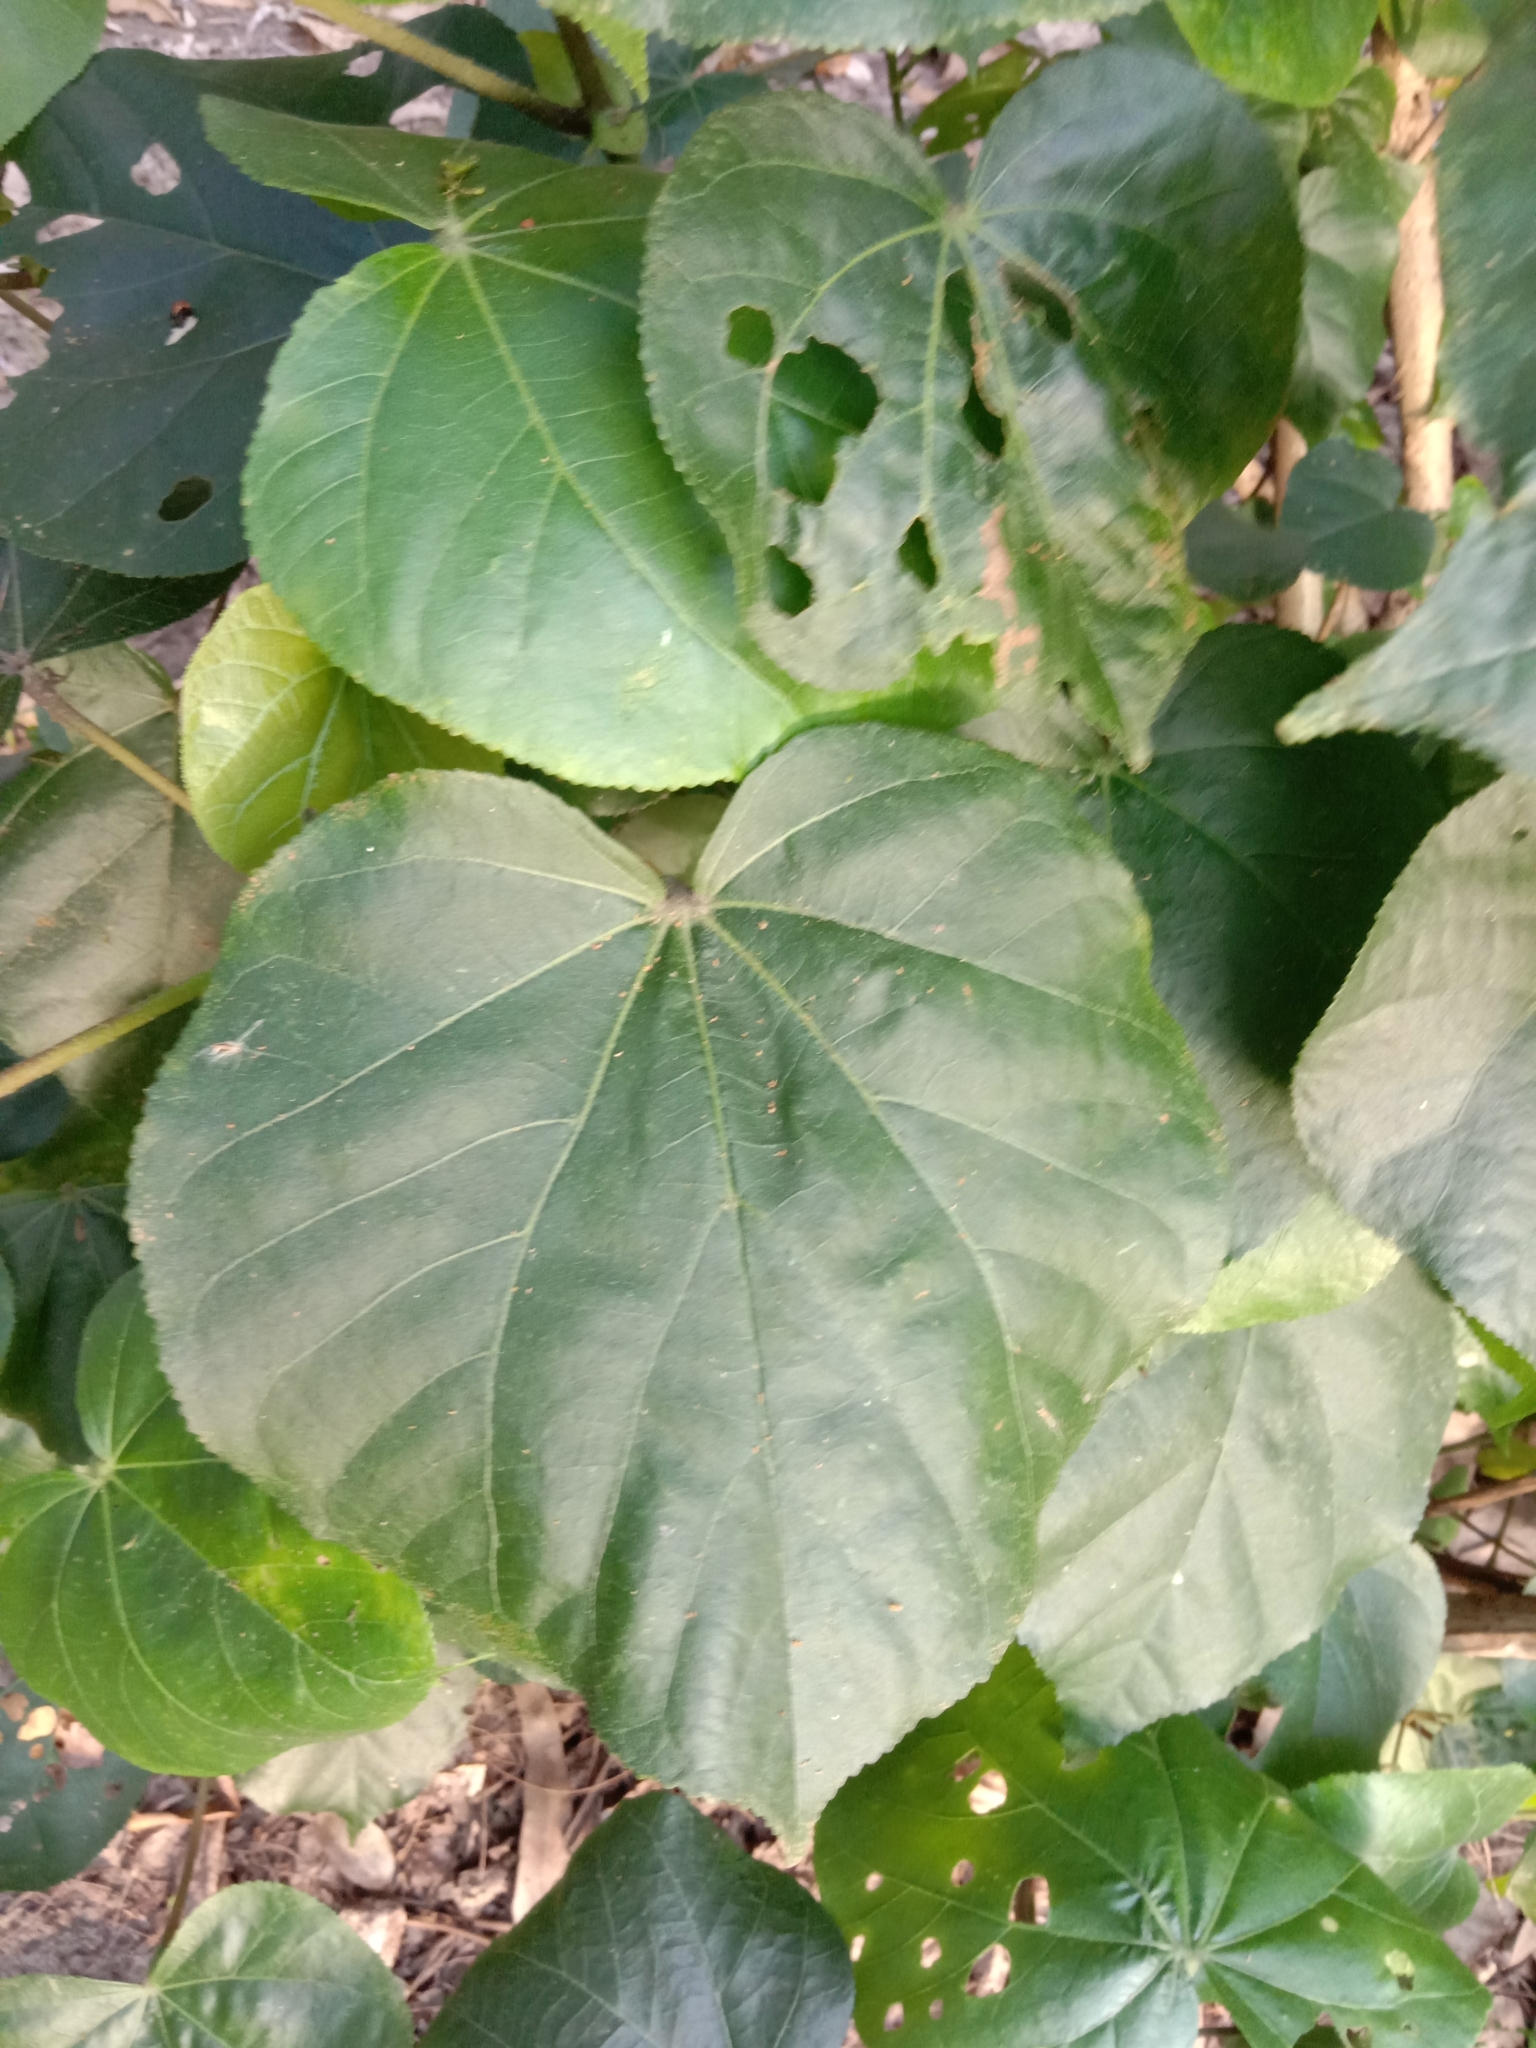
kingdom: Plantae
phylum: Tracheophyta
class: Magnoliopsida
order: Malvales
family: Malvaceae
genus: Talipariti
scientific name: Talipariti tiliaceum
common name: Sea hibiscus
